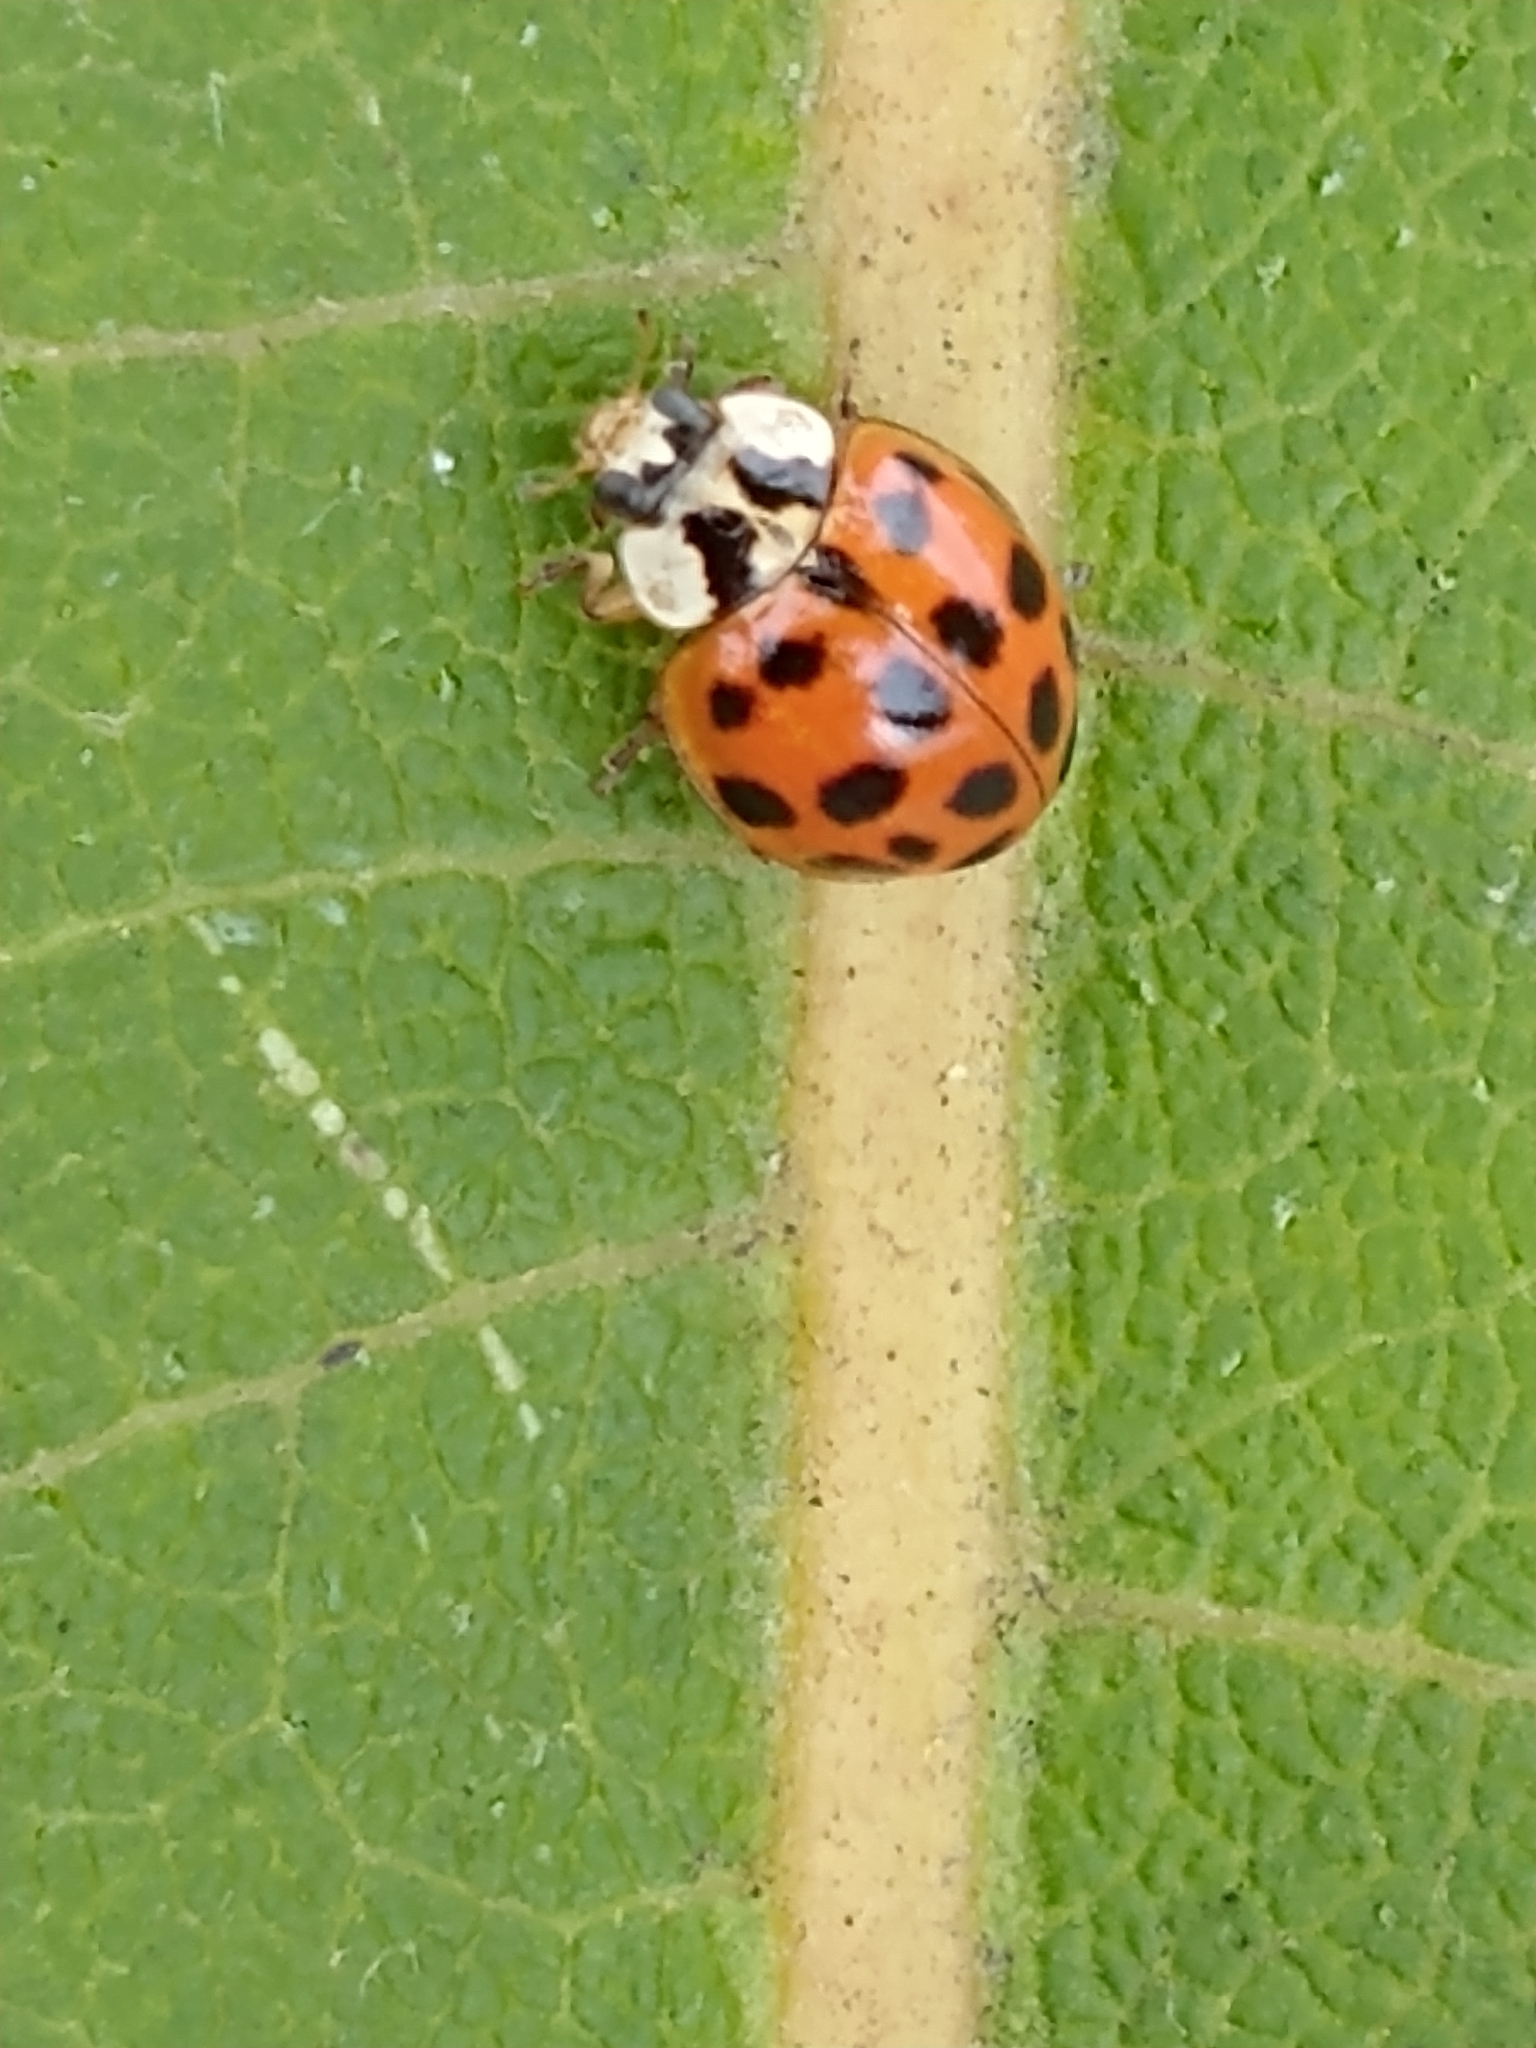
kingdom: Animalia
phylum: Arthropoda
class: Insecta
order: Coleoptera
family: Coccinellidae
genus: Harmonia
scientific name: Harmonia axyridis
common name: Harlequin ladybird
